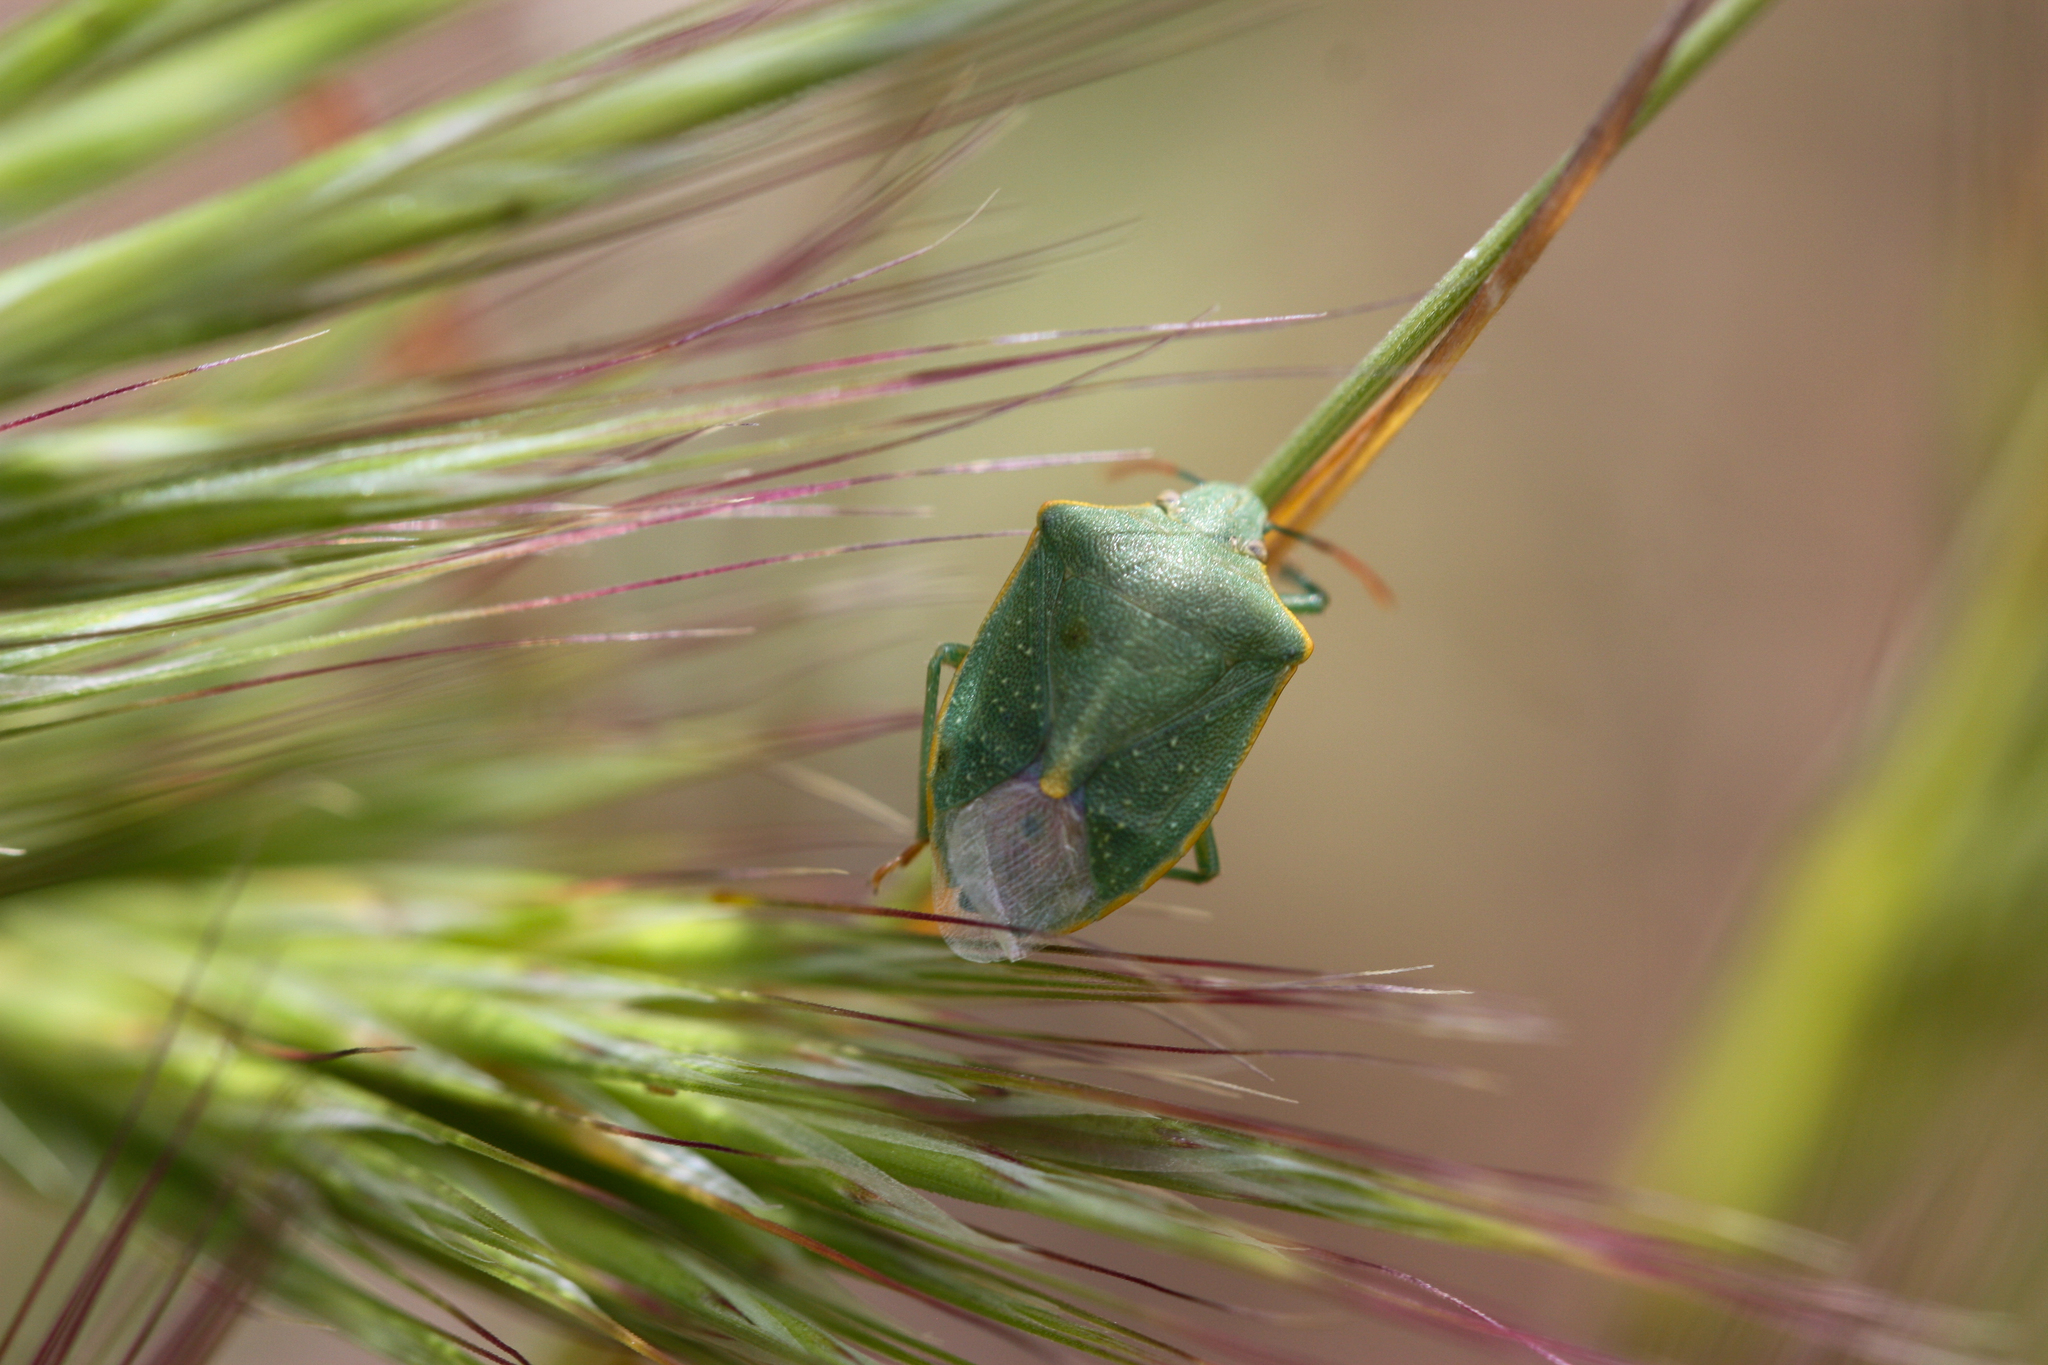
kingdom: Animalia
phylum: Arthropoda
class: Insecta
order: Hemiptera
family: Pentatomidae
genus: Thyanta
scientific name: Thyanta accerra
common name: Stink bug
